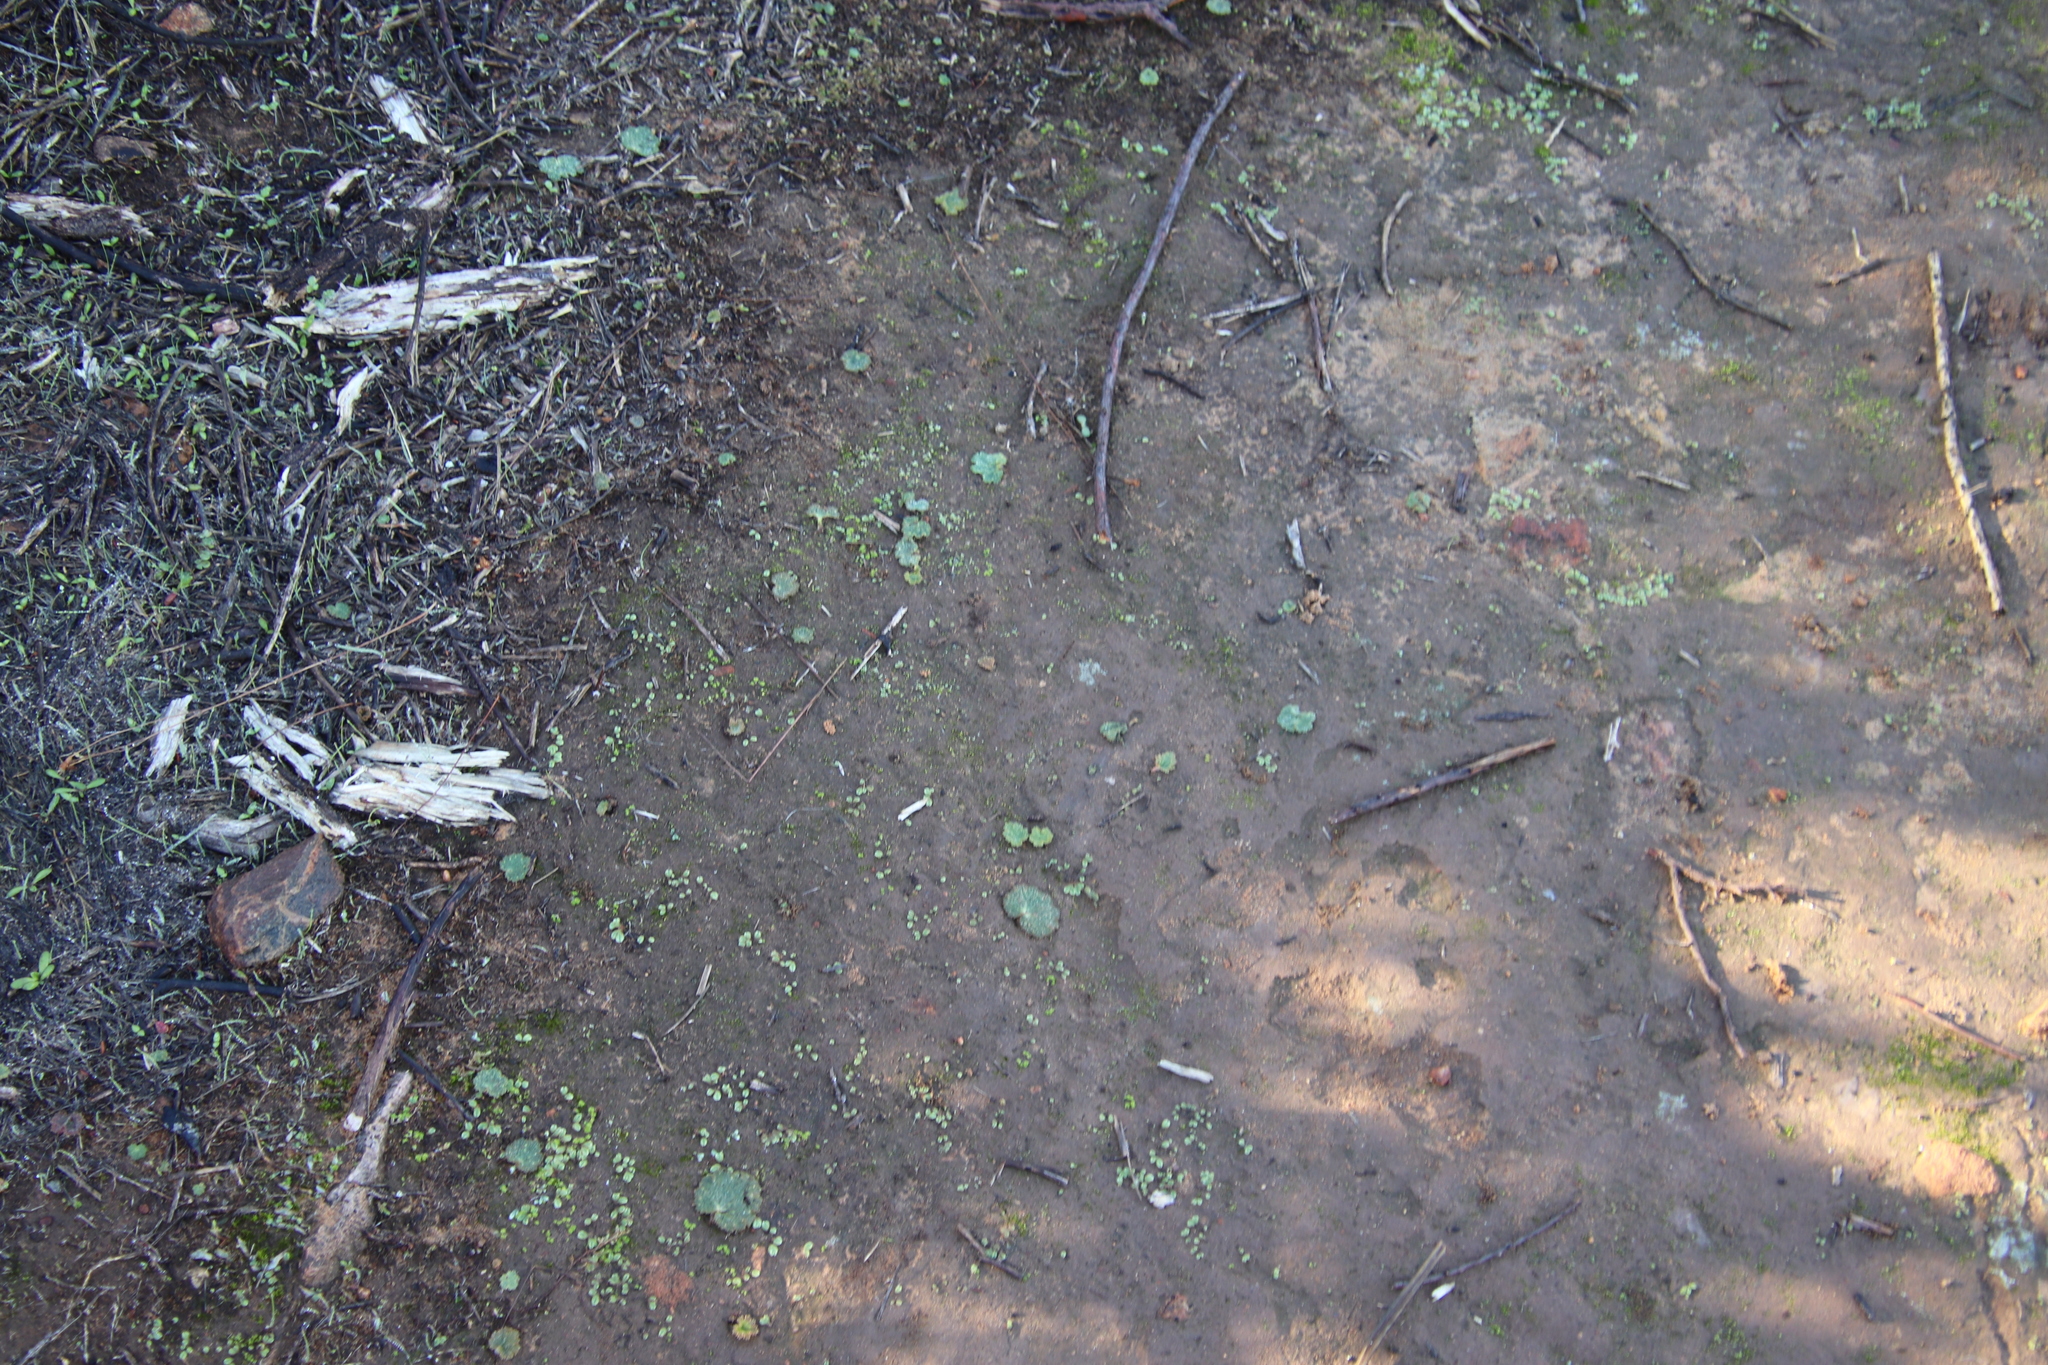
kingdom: Plantae
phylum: Tracheophyta
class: Magnoliopsida
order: Saxifragales
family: Saxifragaceae
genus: Jepsonia
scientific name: Jepsonia parryi
